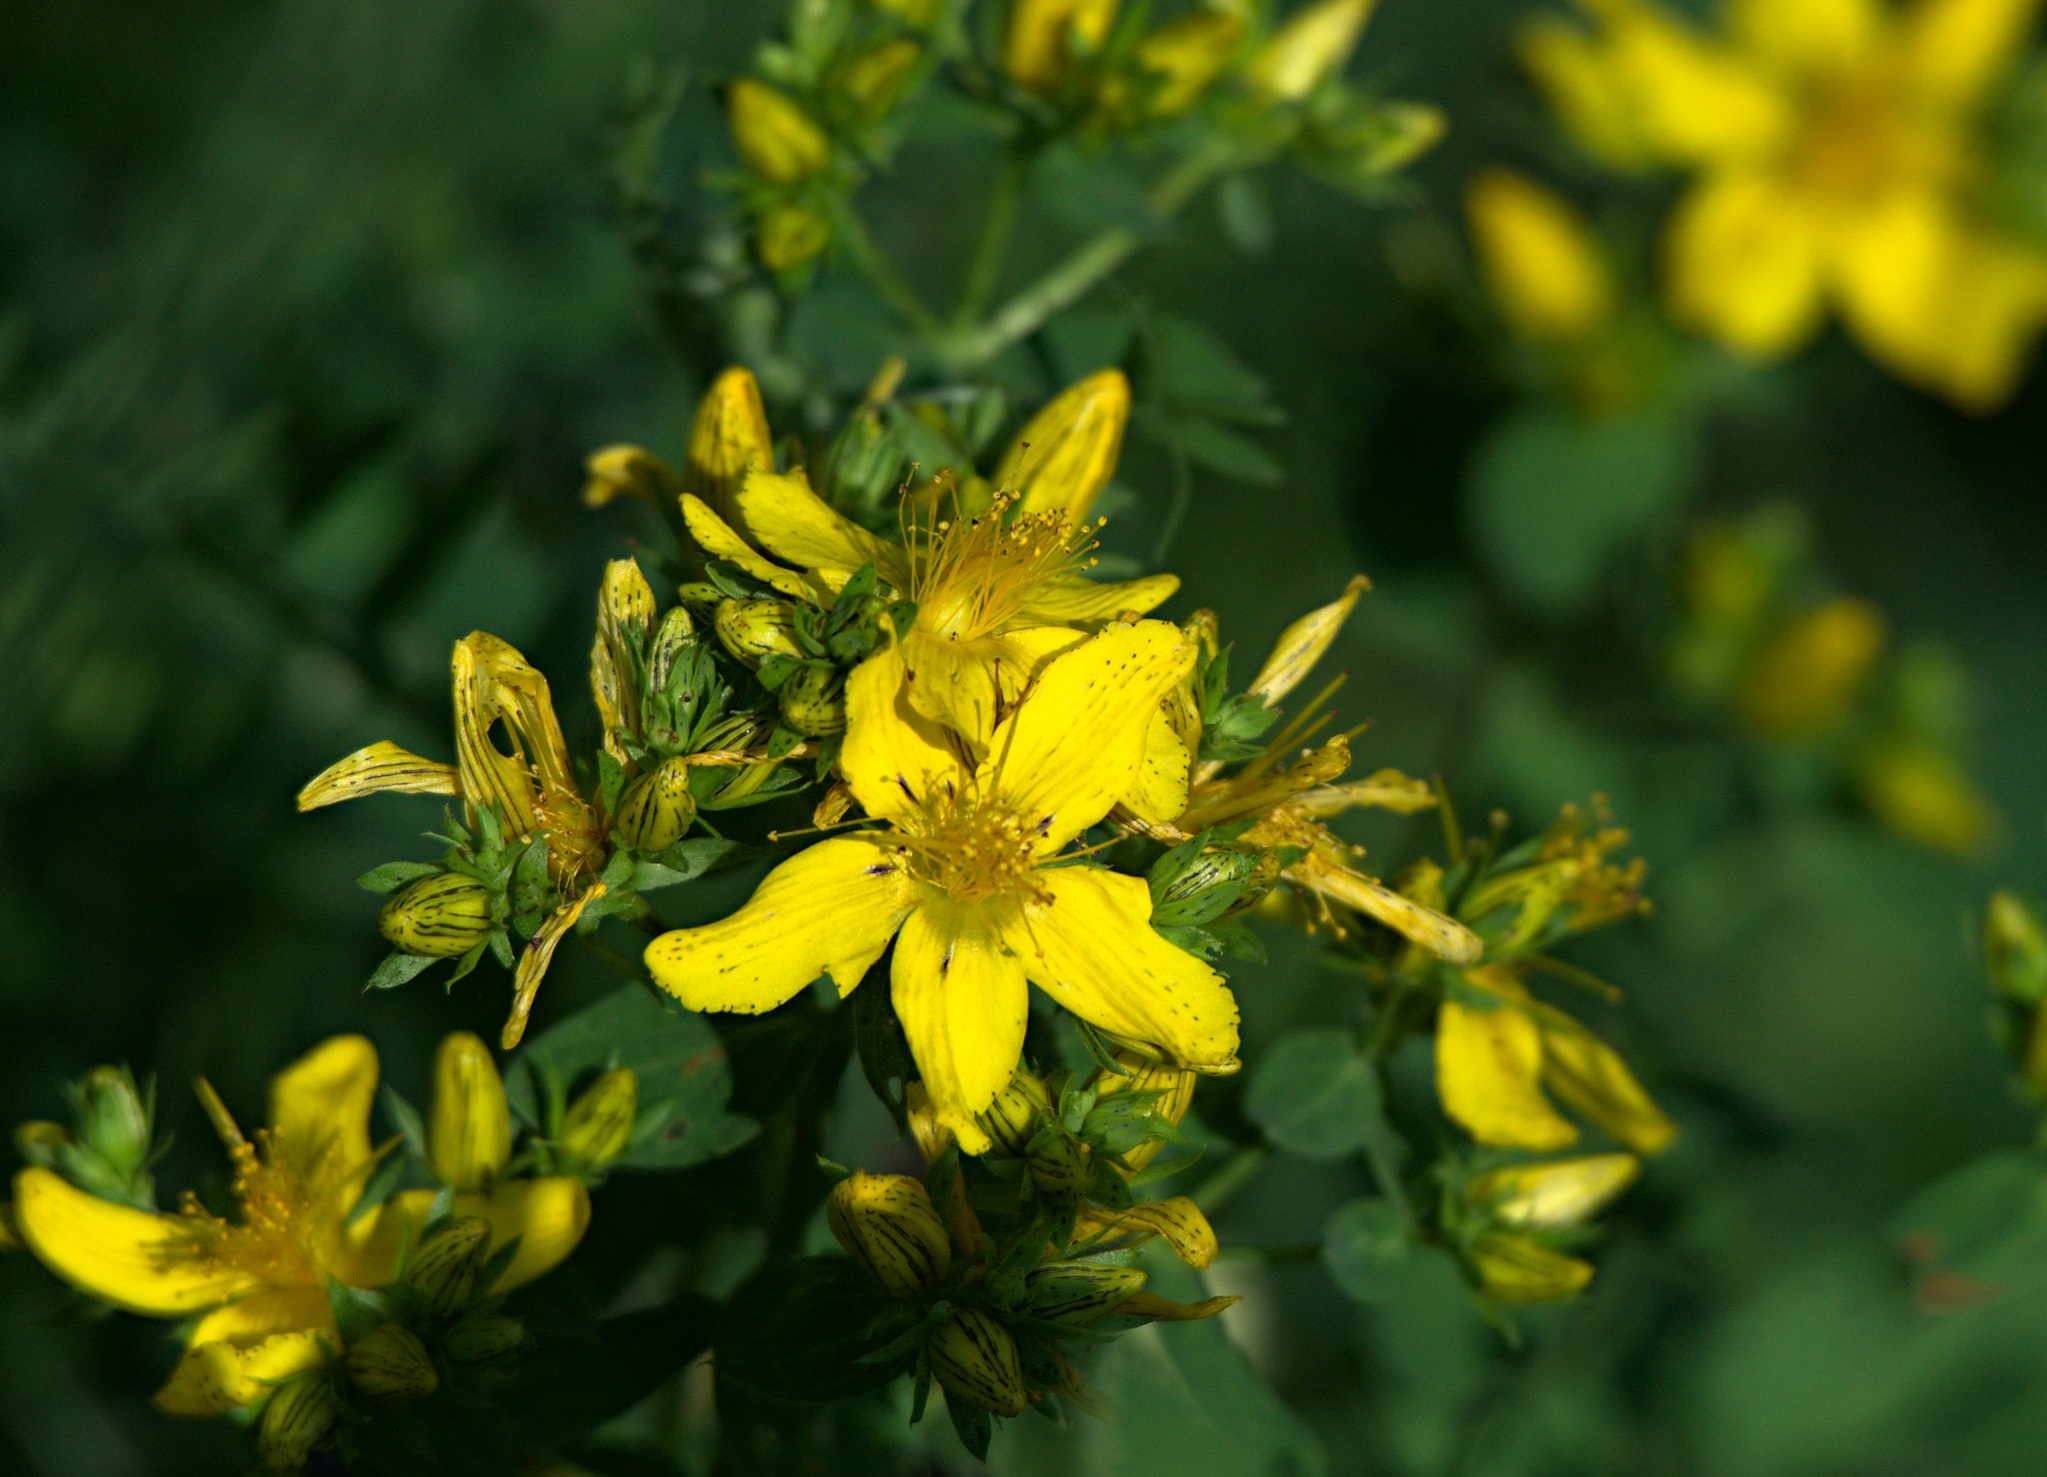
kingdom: Plantae
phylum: Tracheophyta
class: Magnoliopsida
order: Malpighiales
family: Hypericaceae
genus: Hypericum
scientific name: Hypericum perforatum
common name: Common st. johnswort
